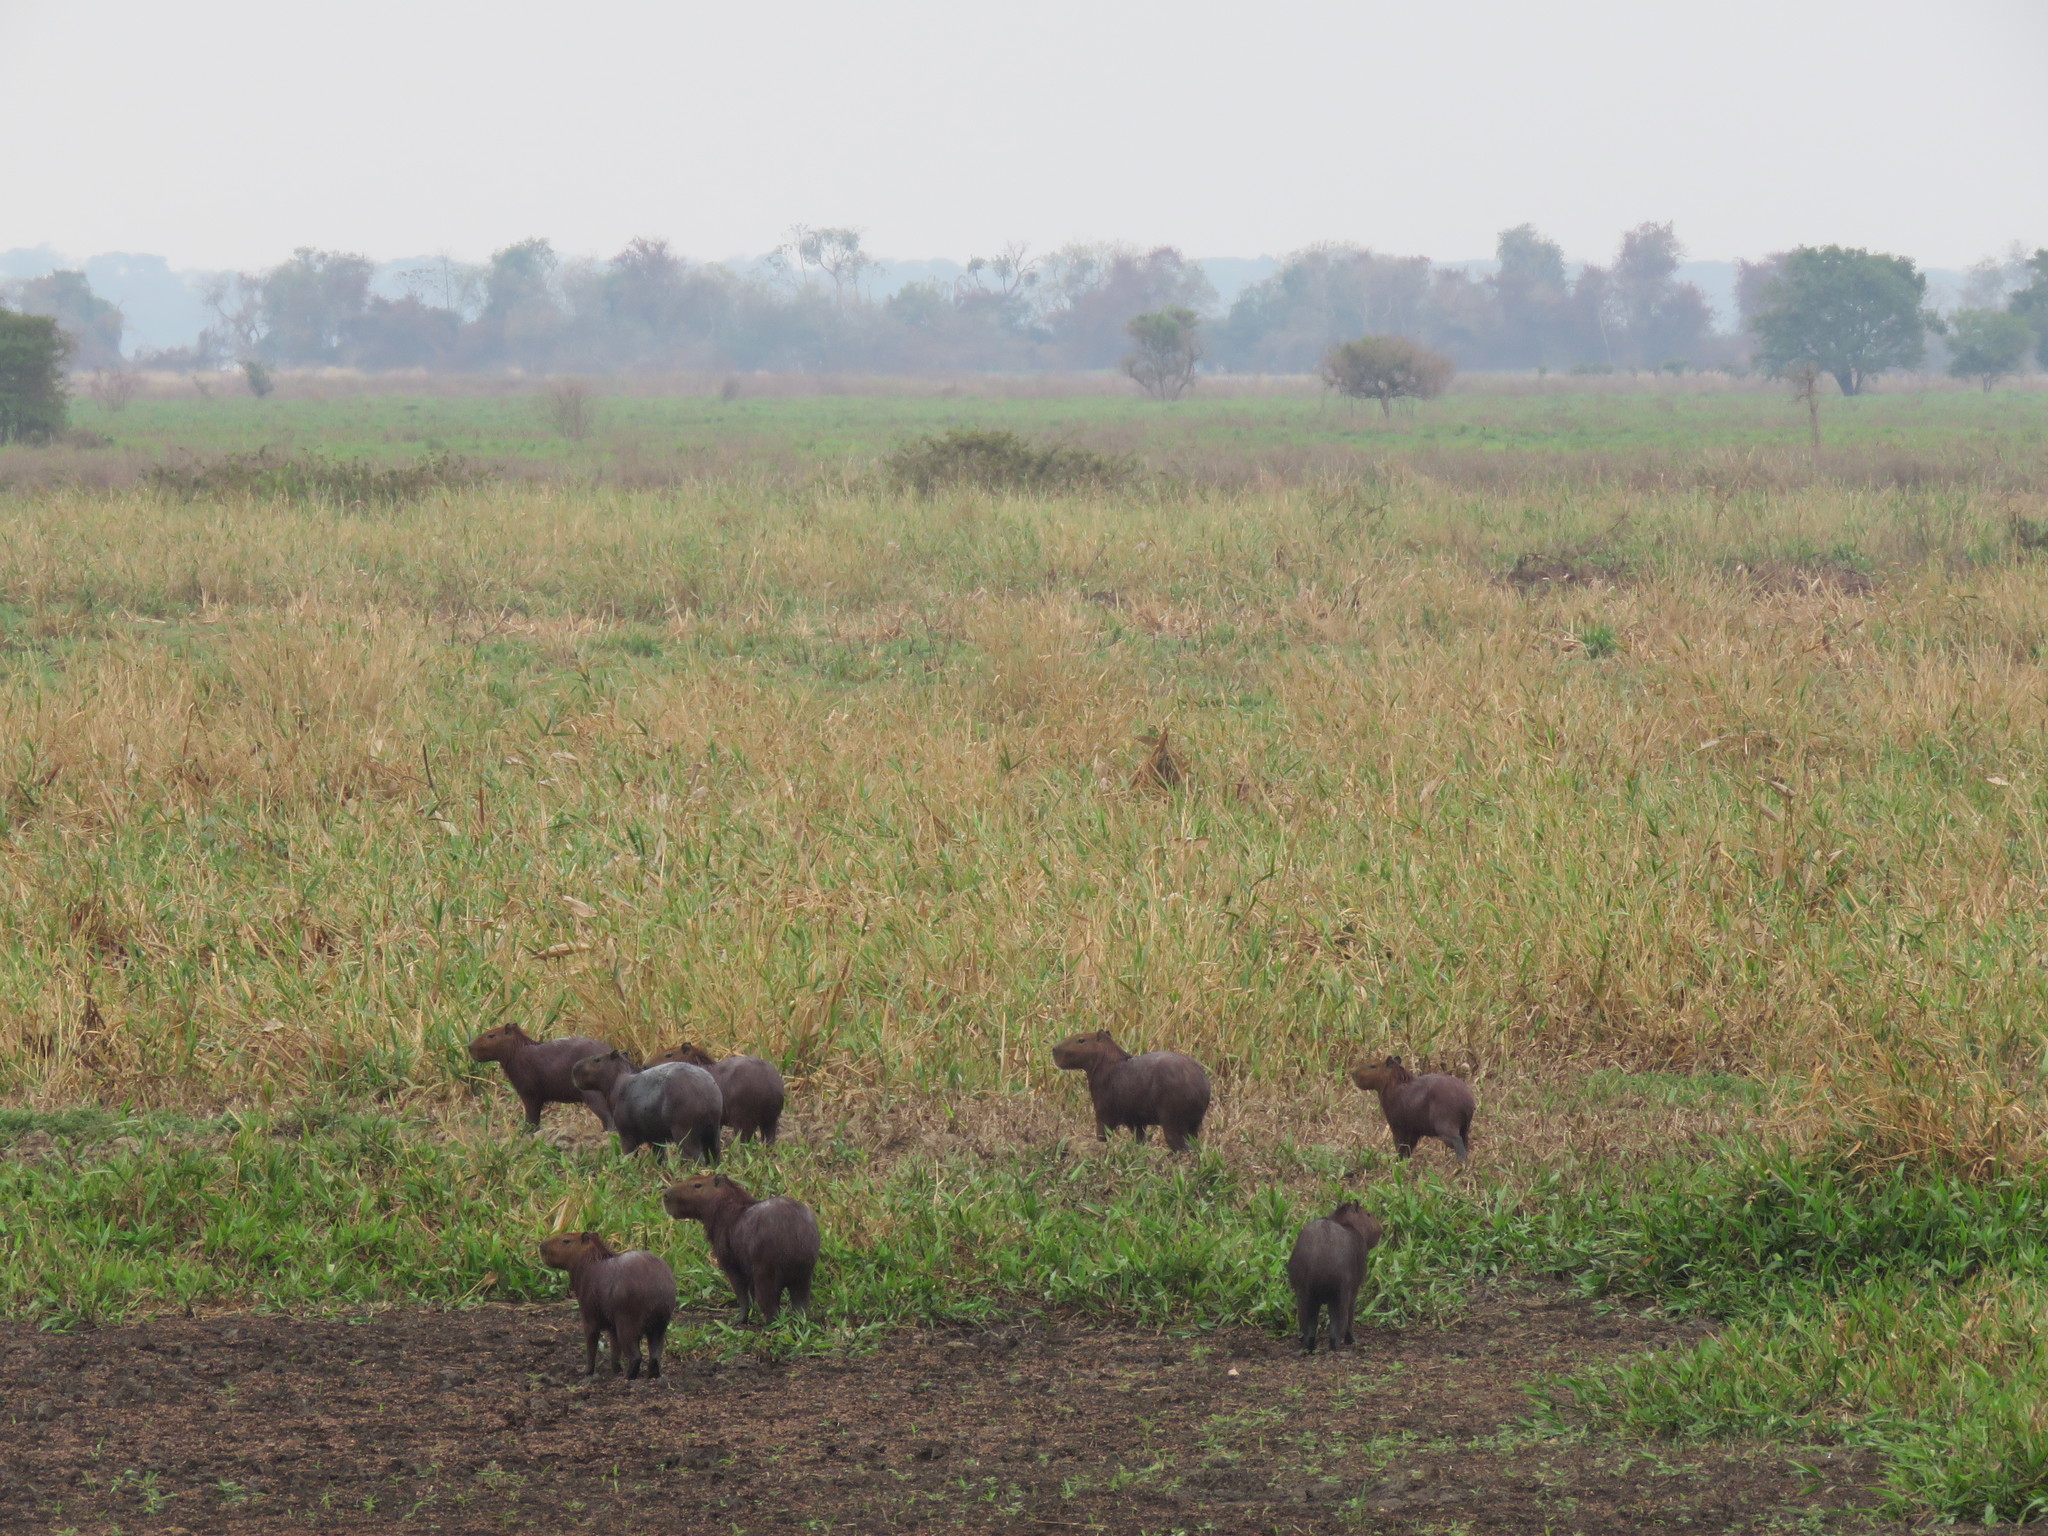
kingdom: Animalia
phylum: Chordata
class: Mammalia
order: Rodentia
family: Caviidae
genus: Hydrochoerus
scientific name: Hydrochoerus hydrochaeris
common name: Capybara
